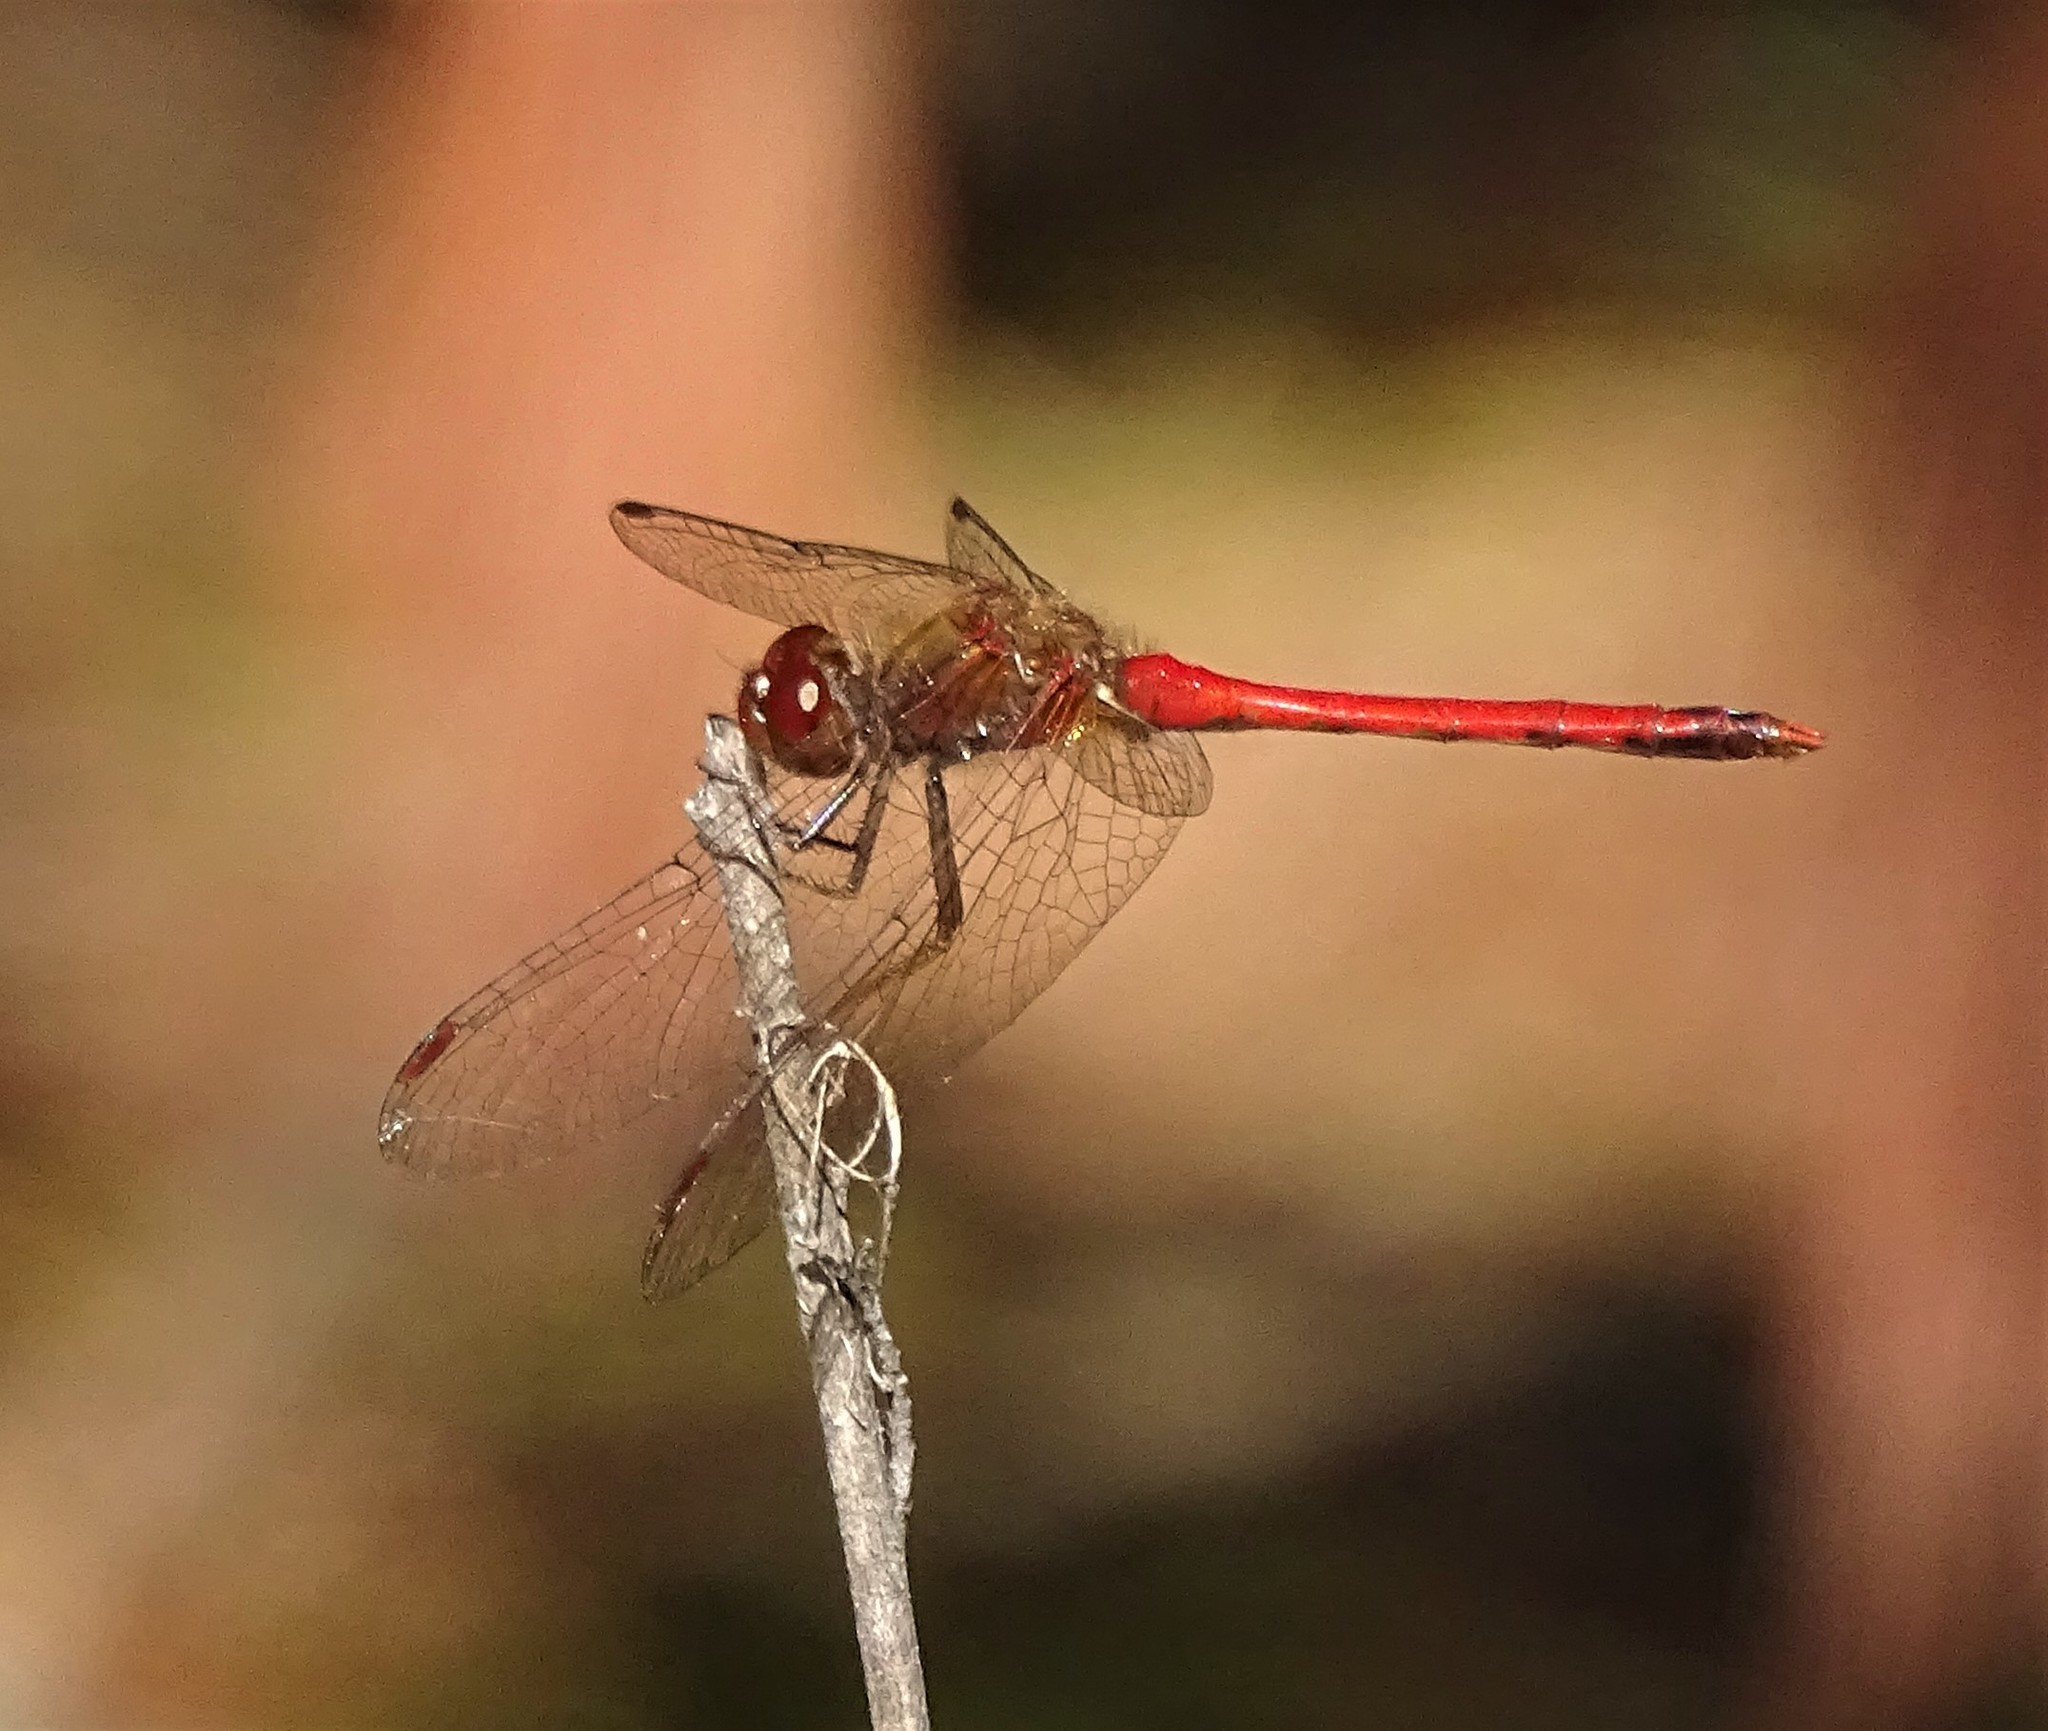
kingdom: Animalia
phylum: Arthropoda
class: Insecta
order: Odonata
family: Libellulidae
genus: Sympetrum
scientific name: Sympetrum vicinum
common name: Autumn meadowhawk
